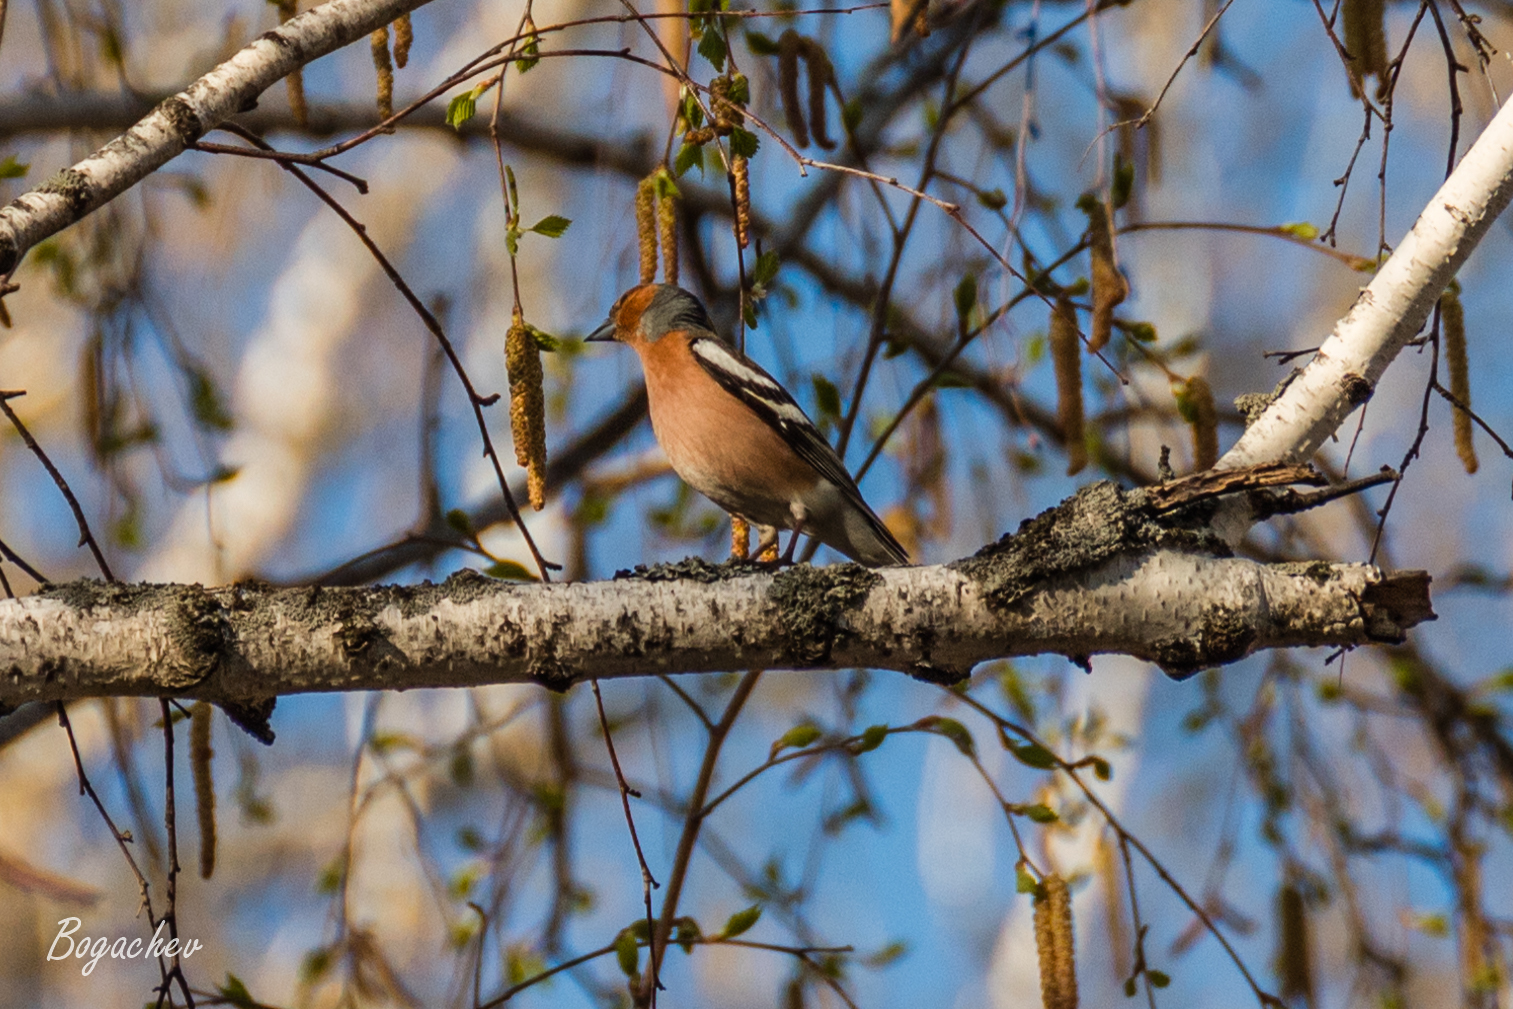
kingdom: Animalia
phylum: Chordata
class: Aves
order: Passeriformes
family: Fringillidae
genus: Fringilla
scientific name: Fringilla coelebs
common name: Common chaffinch
